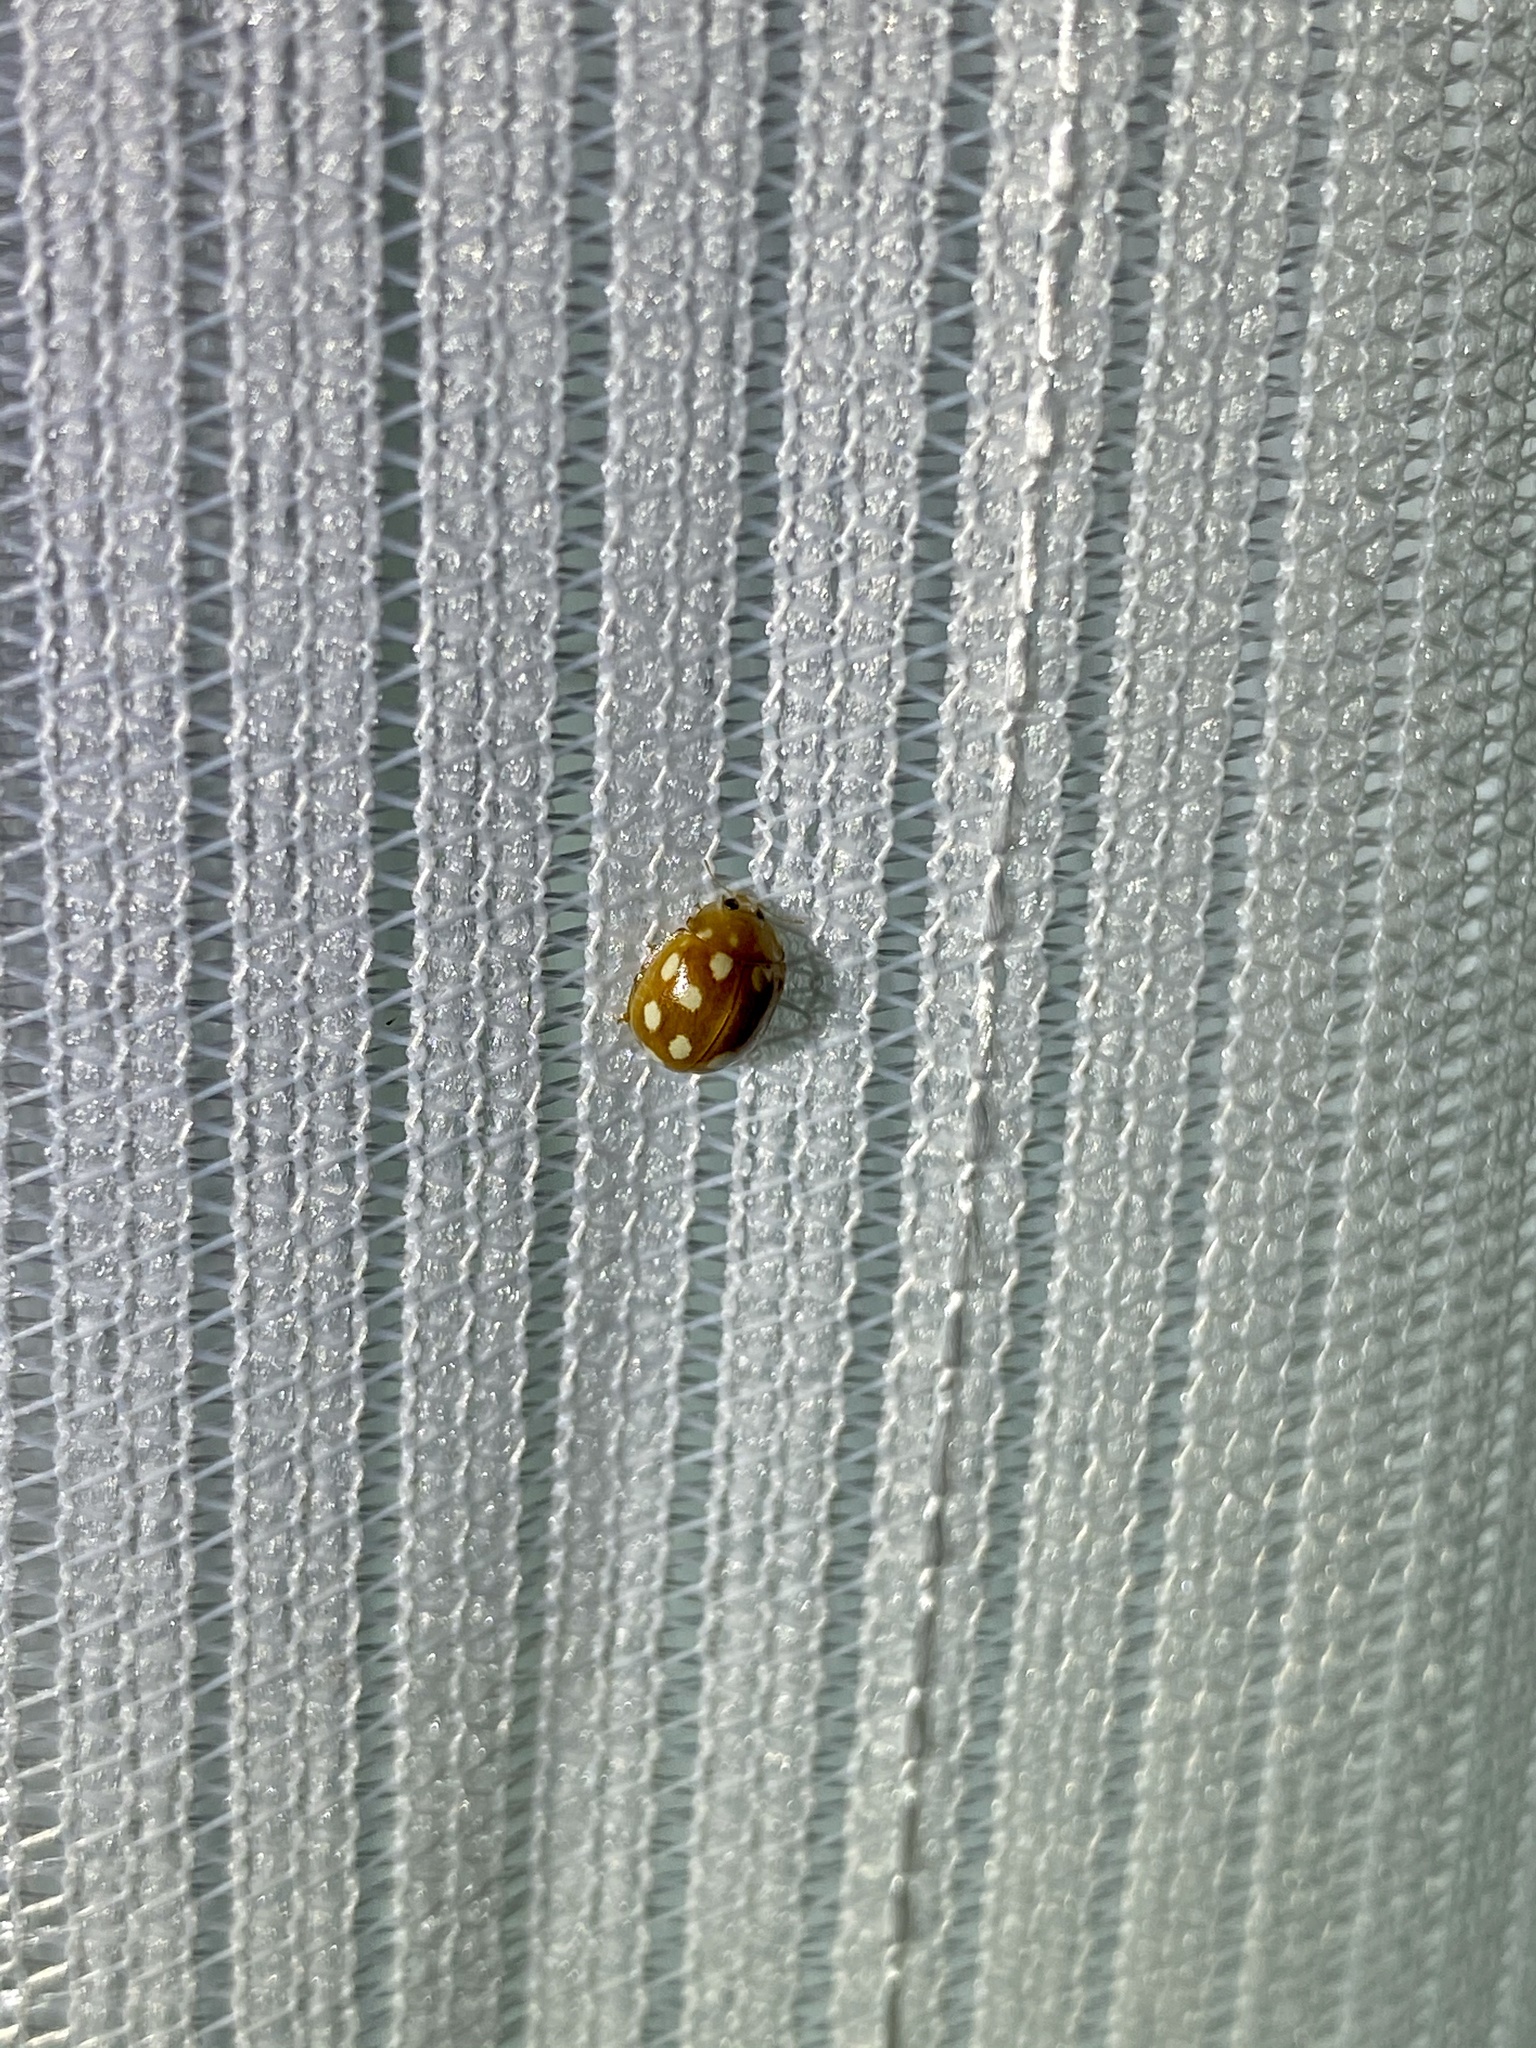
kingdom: Animalia
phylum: Arthropoda
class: Insecta
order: Coleoptera
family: Coccinellidae
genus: Calvia
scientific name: Calvia muiri
